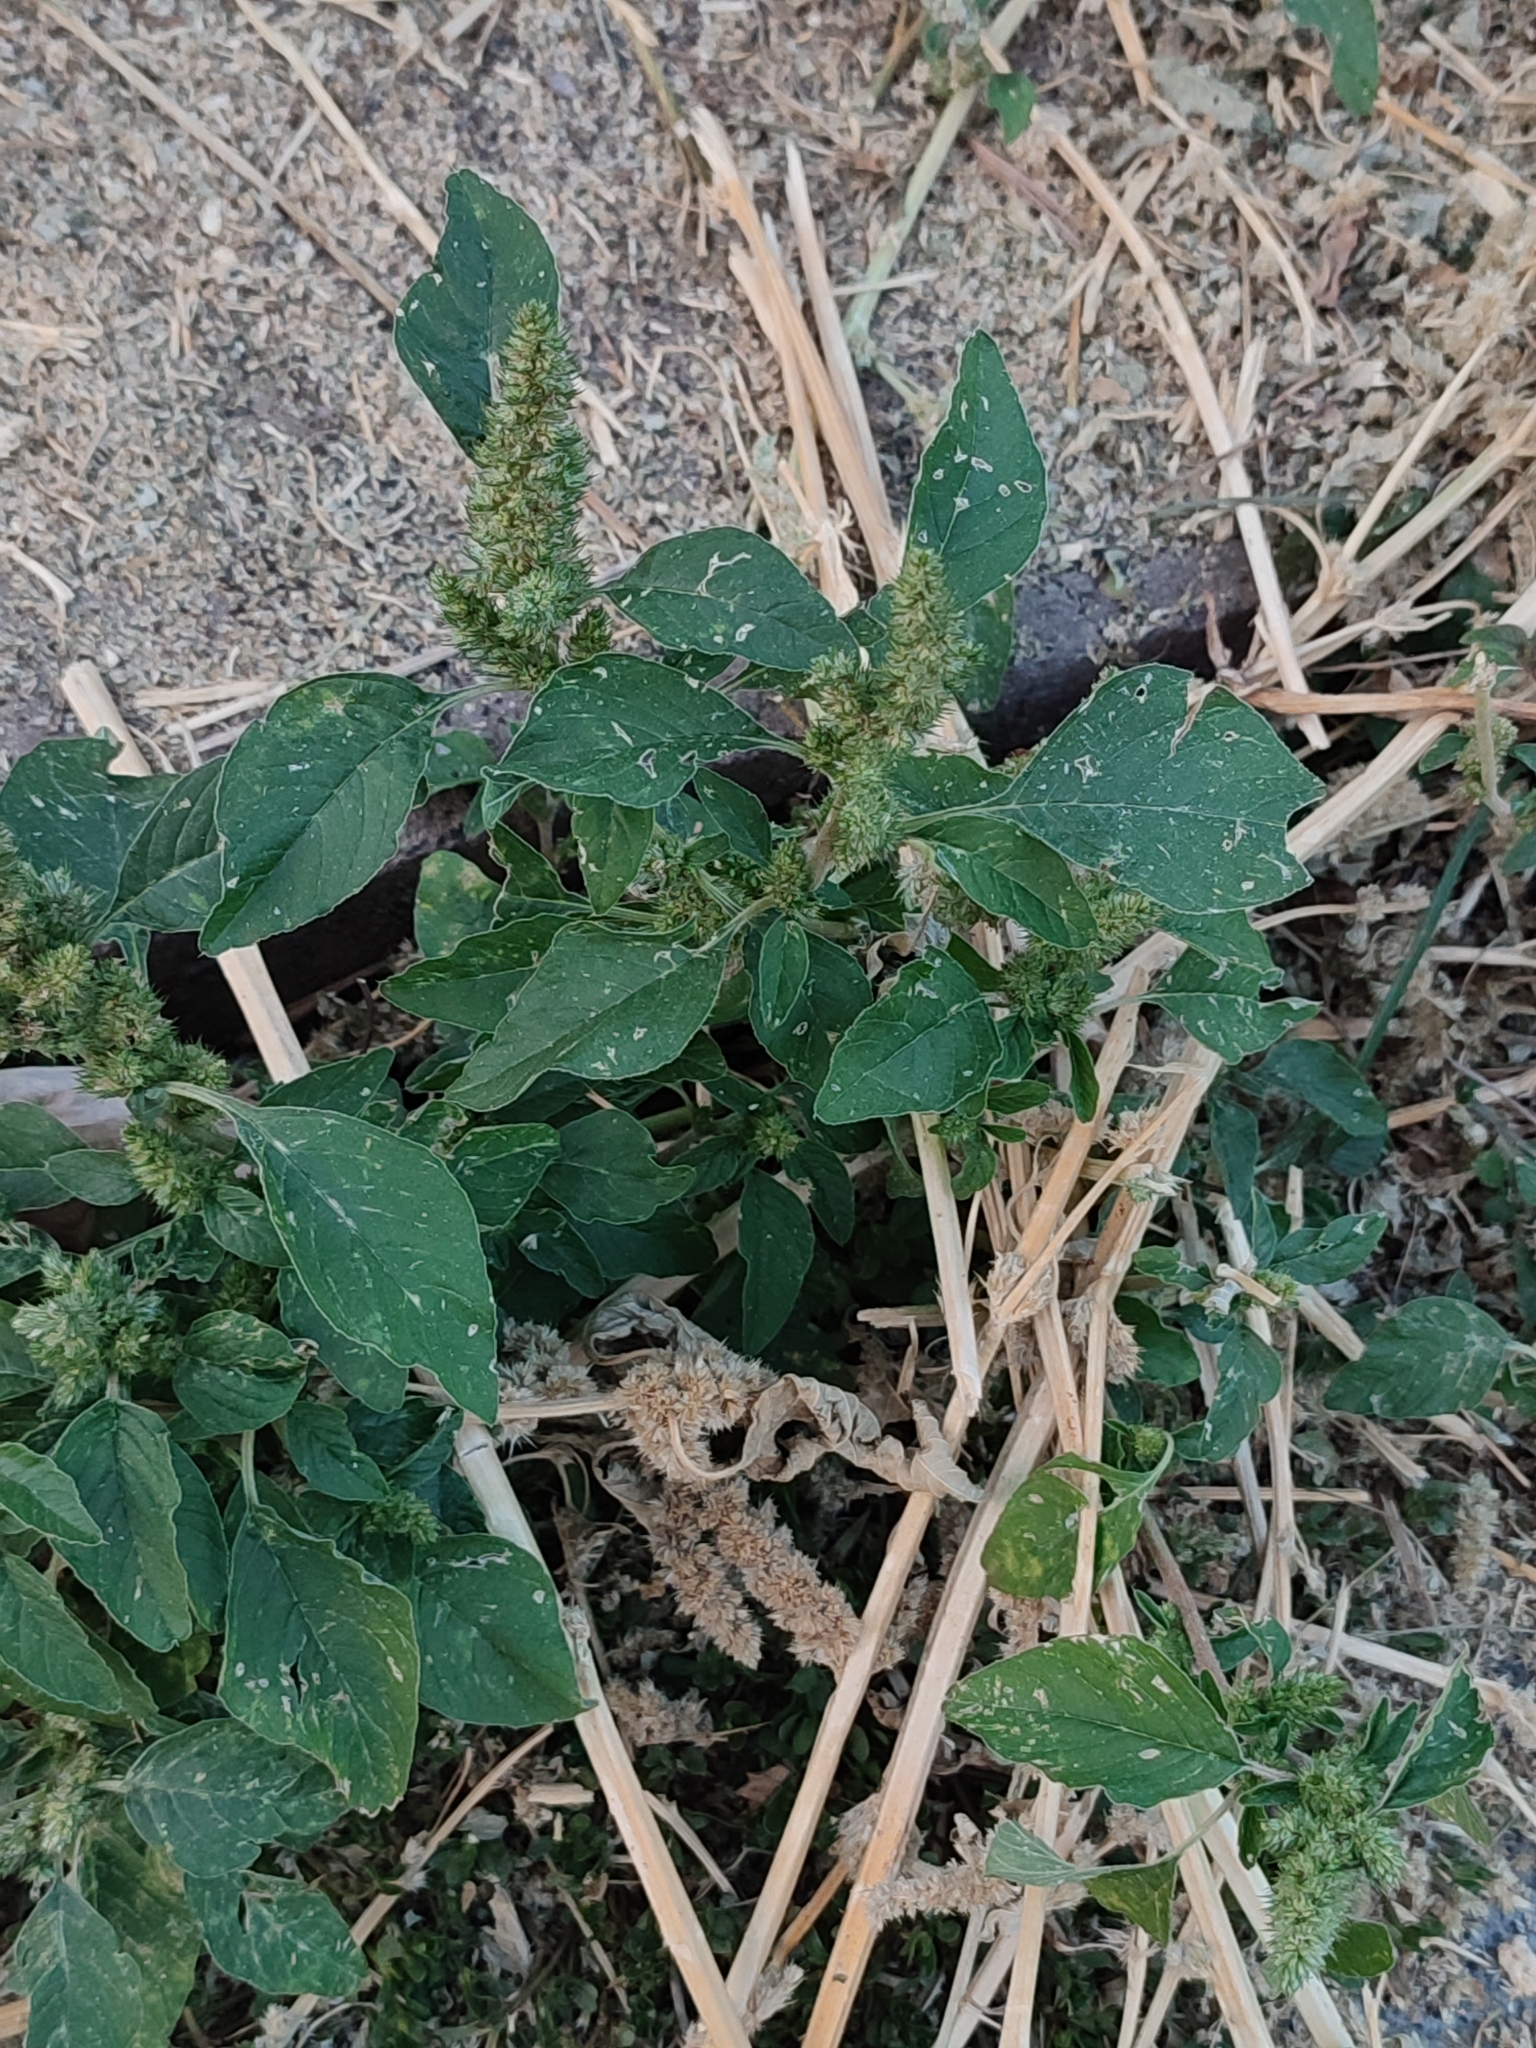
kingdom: Plantae
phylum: Tracheophyta
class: Magnoliopsida
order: Caryophyllales
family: Amaranthaceae
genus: Amaranthus
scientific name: Amaranthus retroflexus
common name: Redroot amaranth
